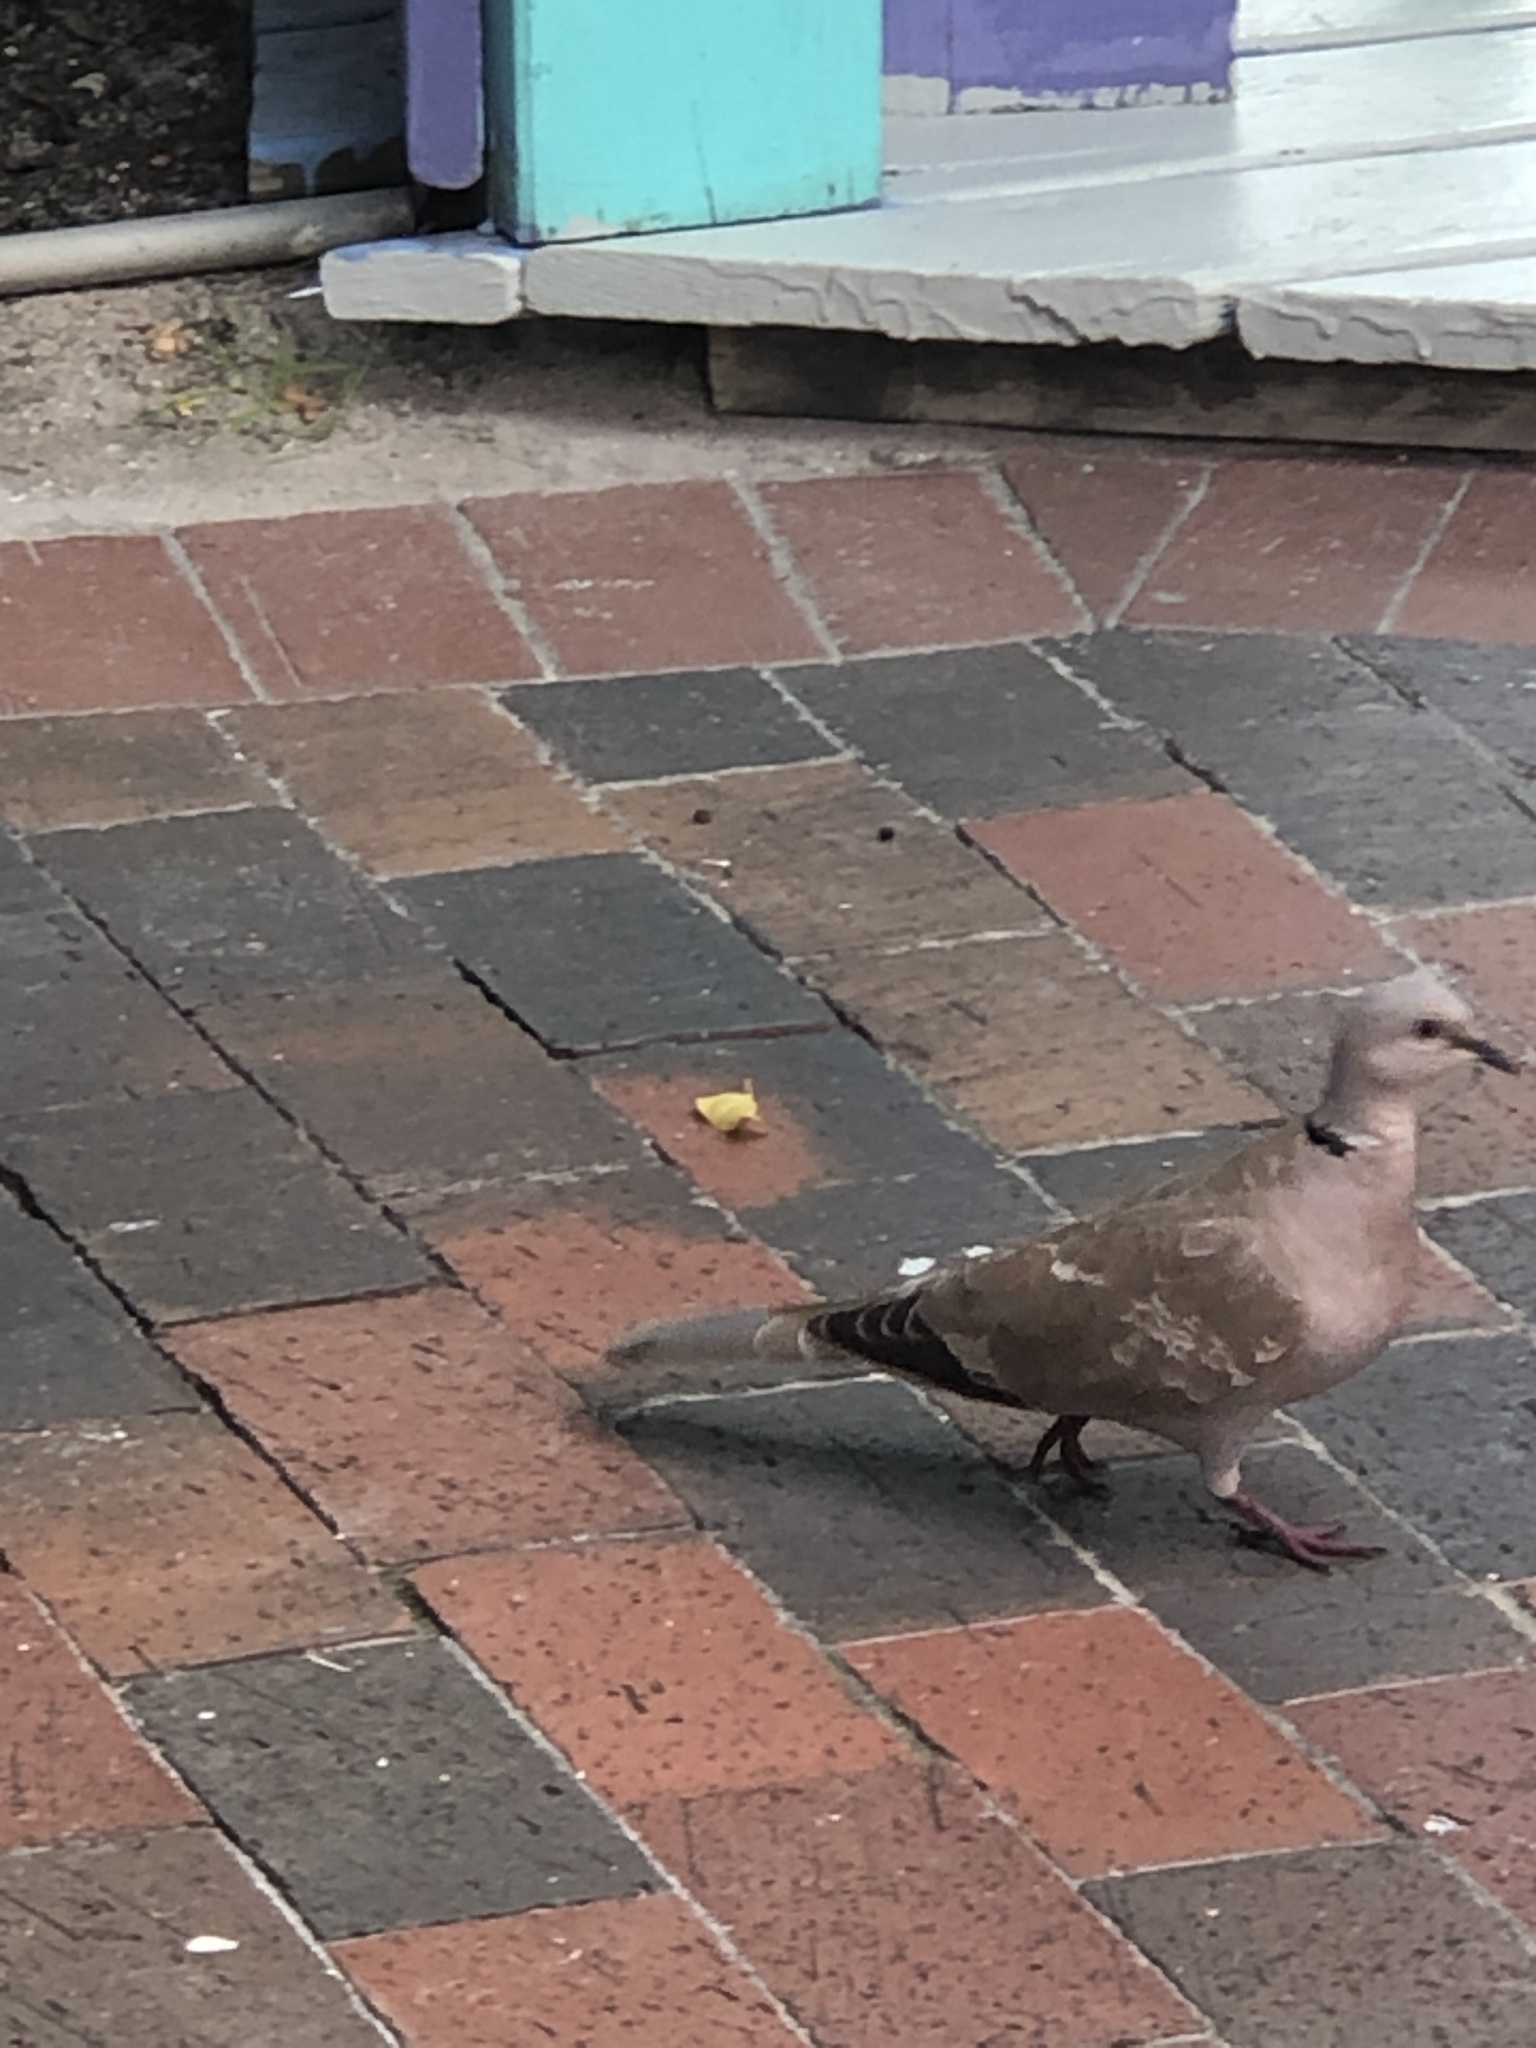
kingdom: Animalia
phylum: Chordata
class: Aves
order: Columbiformes
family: Columbidae
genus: Streptopelia
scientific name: Streptopelia decaocto
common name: Eurasian collared dove
